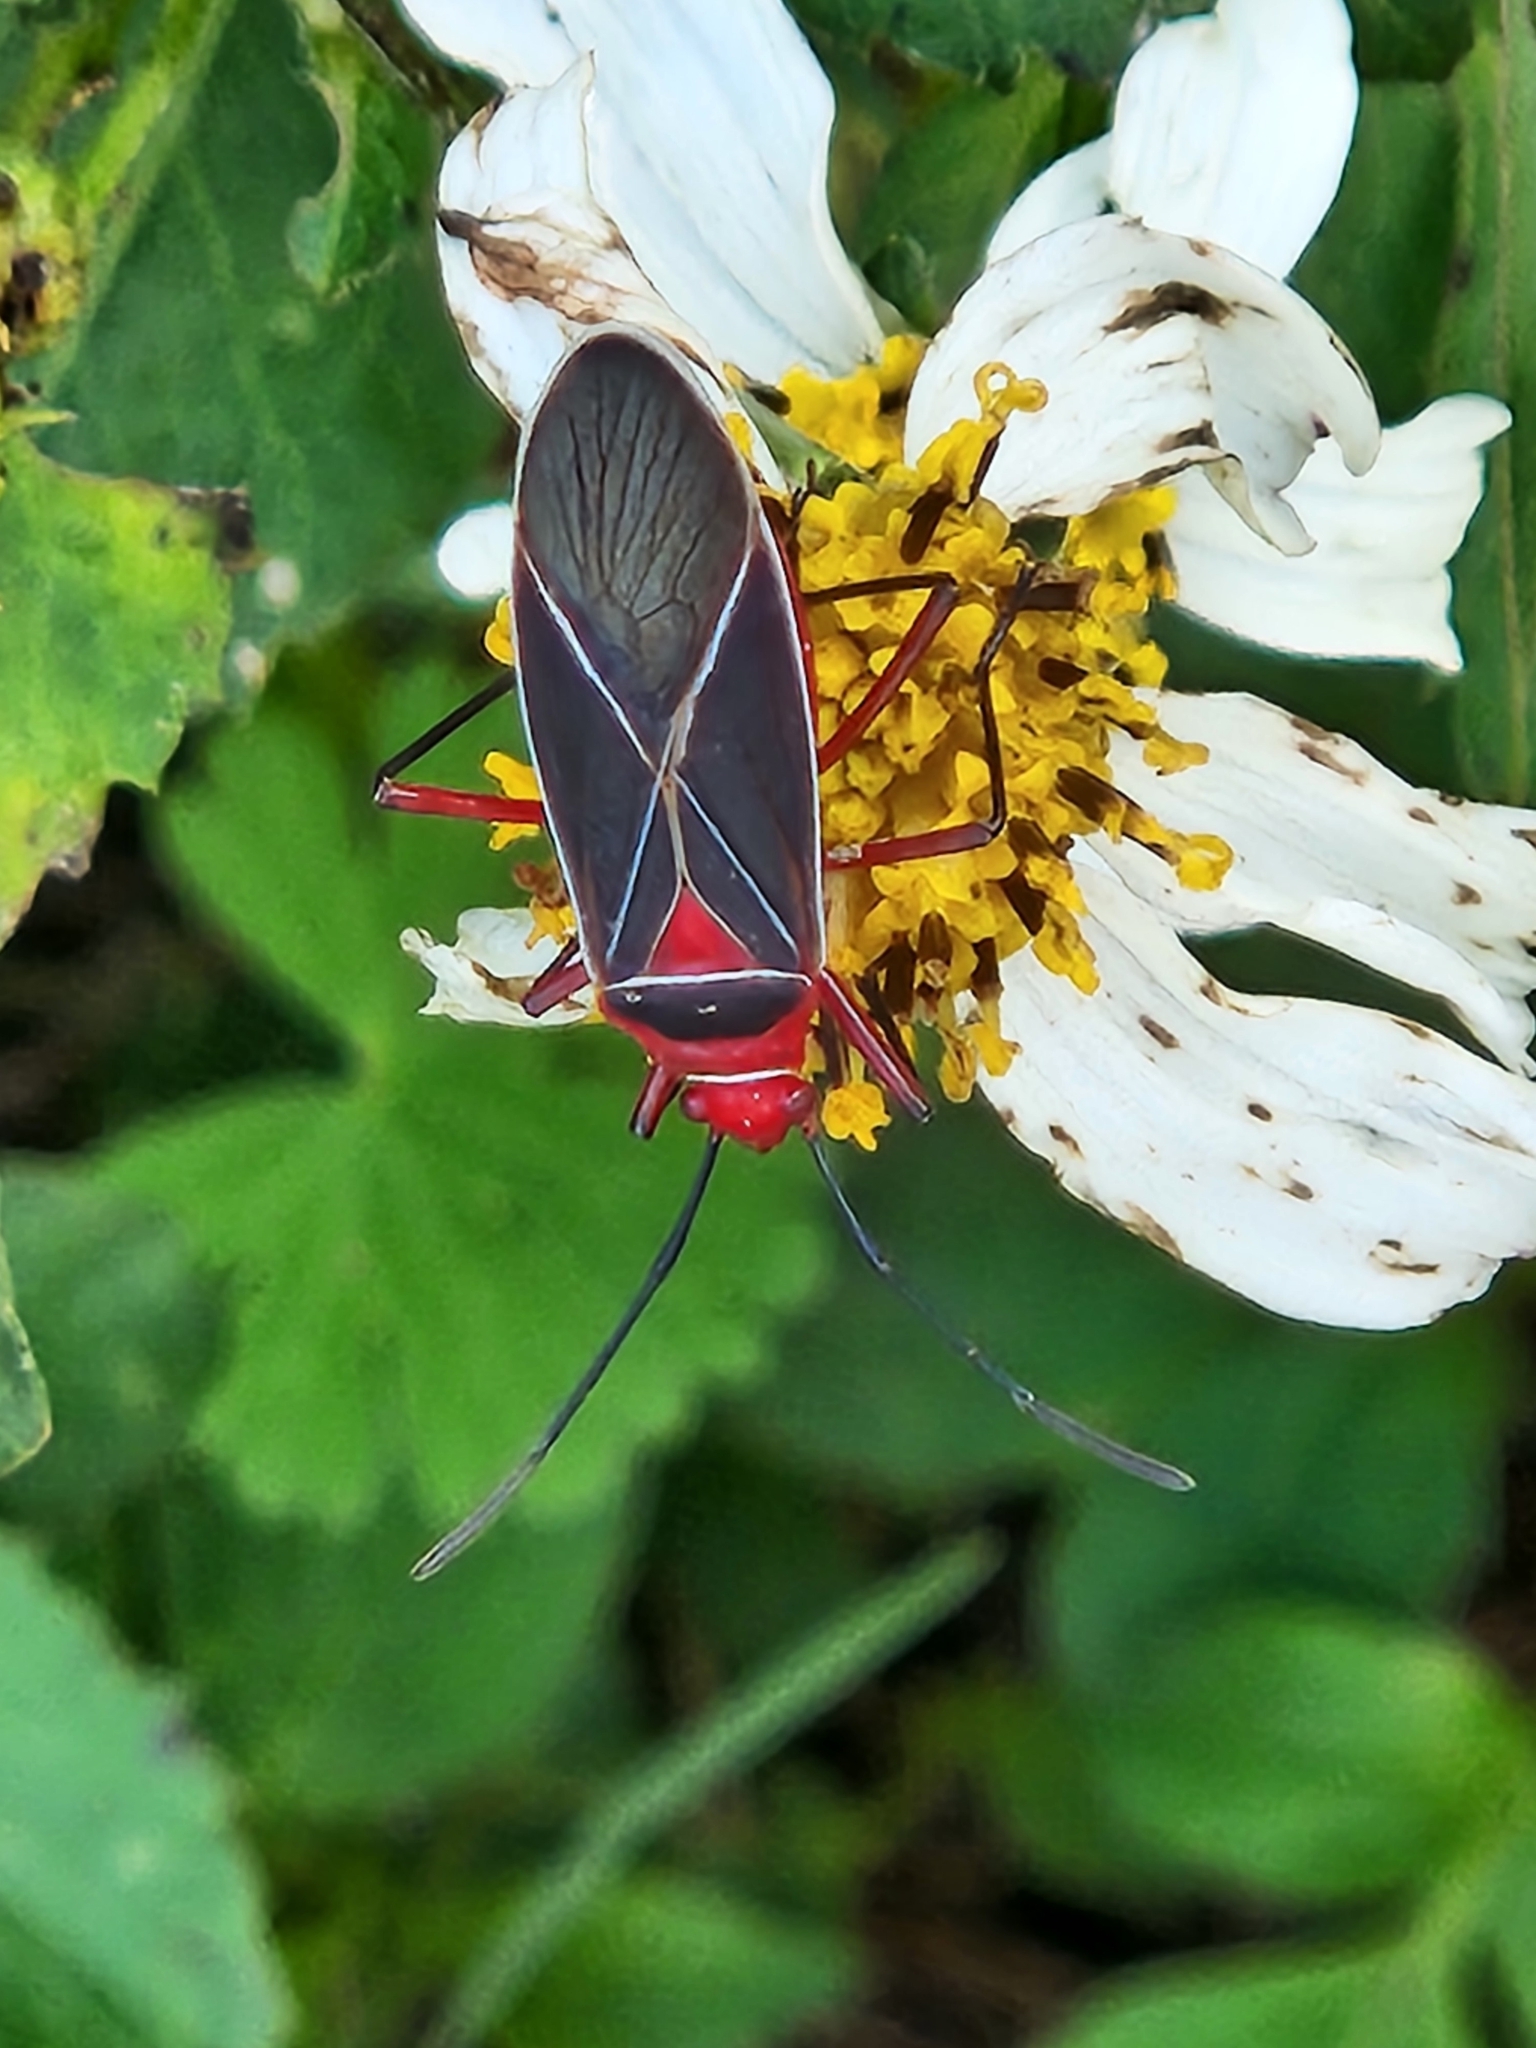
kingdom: Animalia
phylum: Arthropoda
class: Insecta
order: Hemiptera
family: Pyrrhocoridae
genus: Dysdercus
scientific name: Dysdercus suturellus
